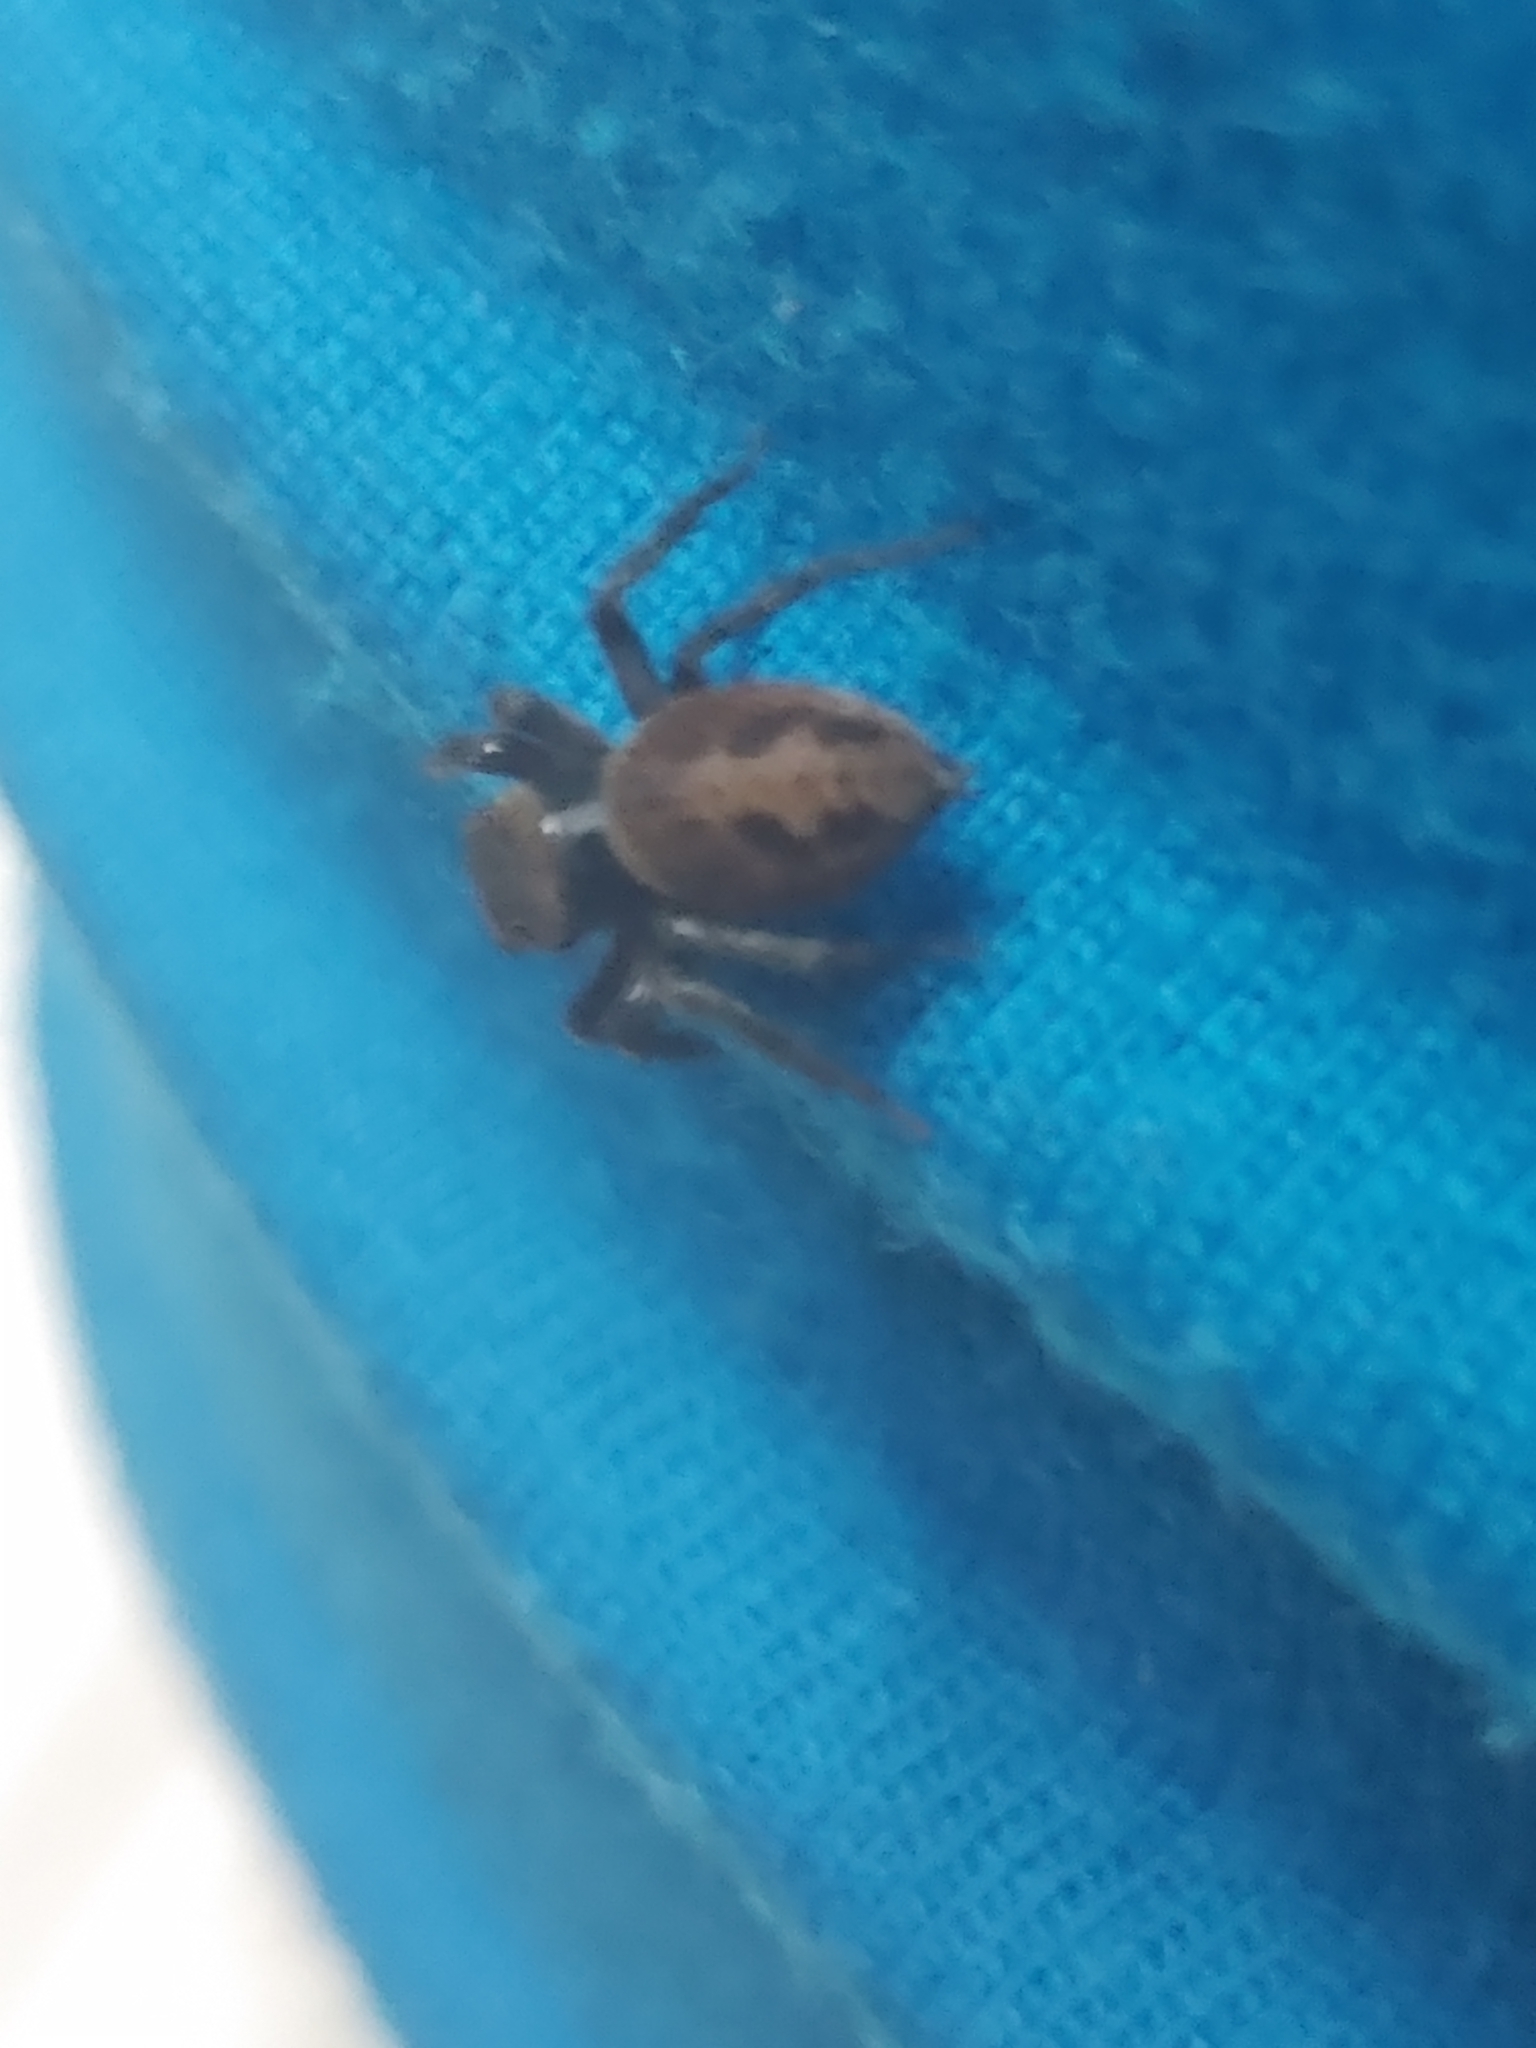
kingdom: Animalia
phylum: Arthropoda
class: Arachnida
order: Araneae
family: Salticidae
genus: Hasarius
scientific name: Hasarius adansoni
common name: Jumping spider
